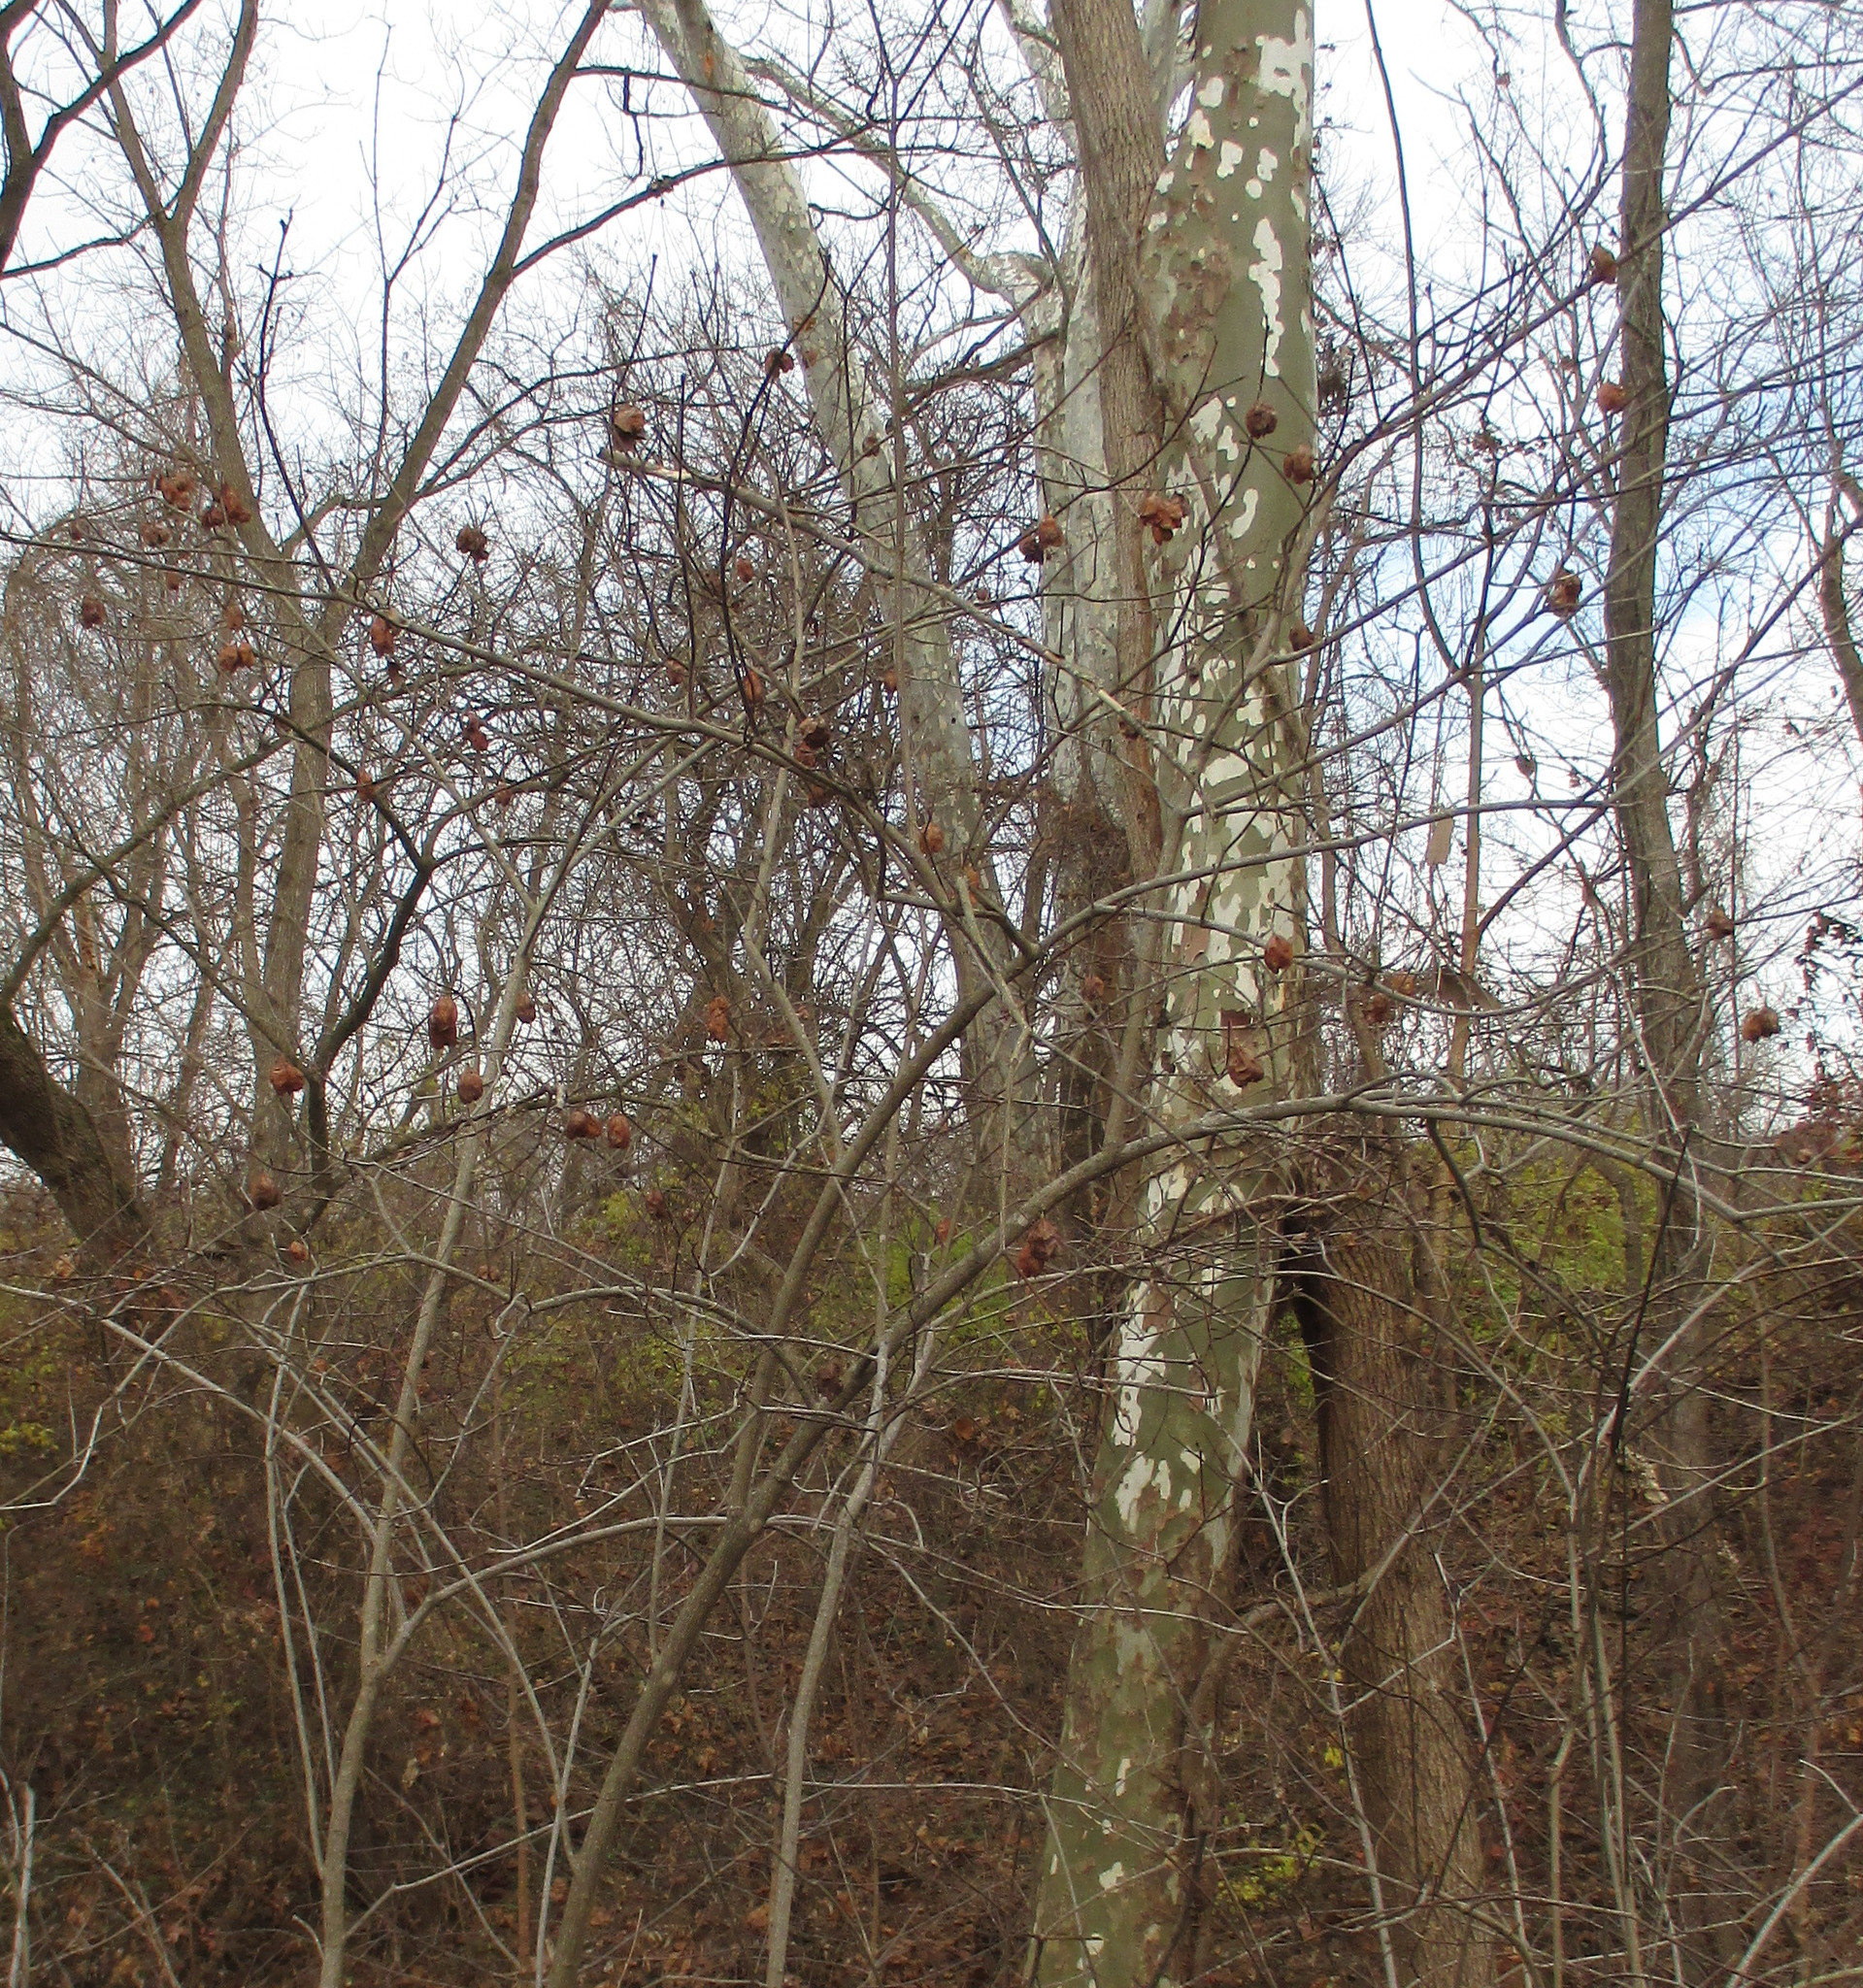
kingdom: Plantae
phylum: Tracheophyta
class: Magnoliopsida
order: Crossosomatales
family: Staphyleaceae
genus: Staphylea
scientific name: Staphylea trifolia
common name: American bladdernut
